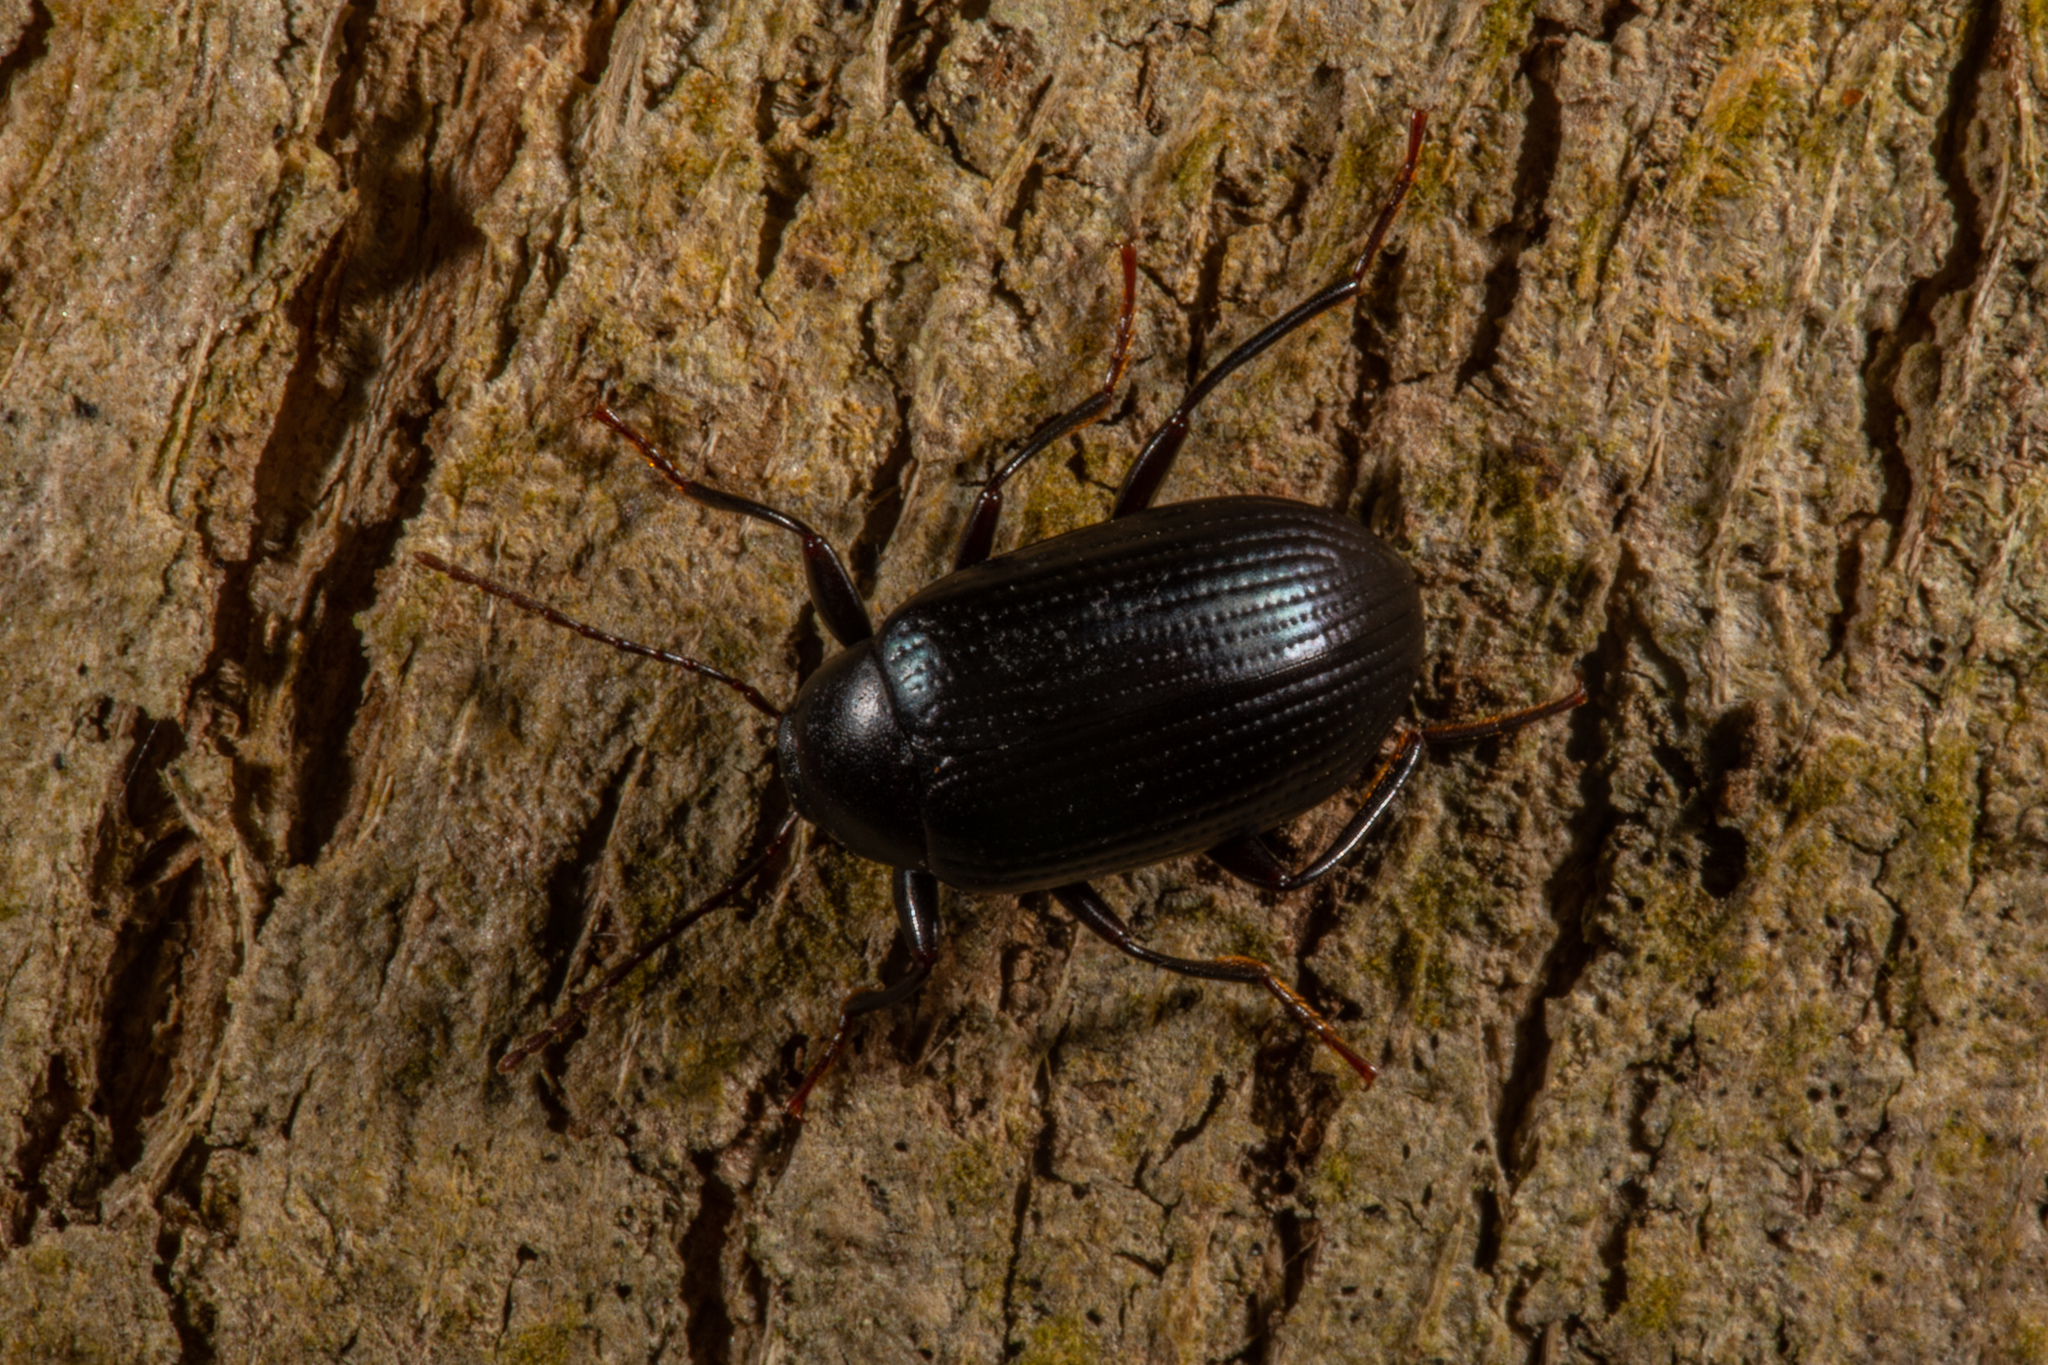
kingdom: Animalia
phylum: Arthropoda
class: Insecta
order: Coleoptera
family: Tenebrionidae
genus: Amarygmus
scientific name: Amarygmus
